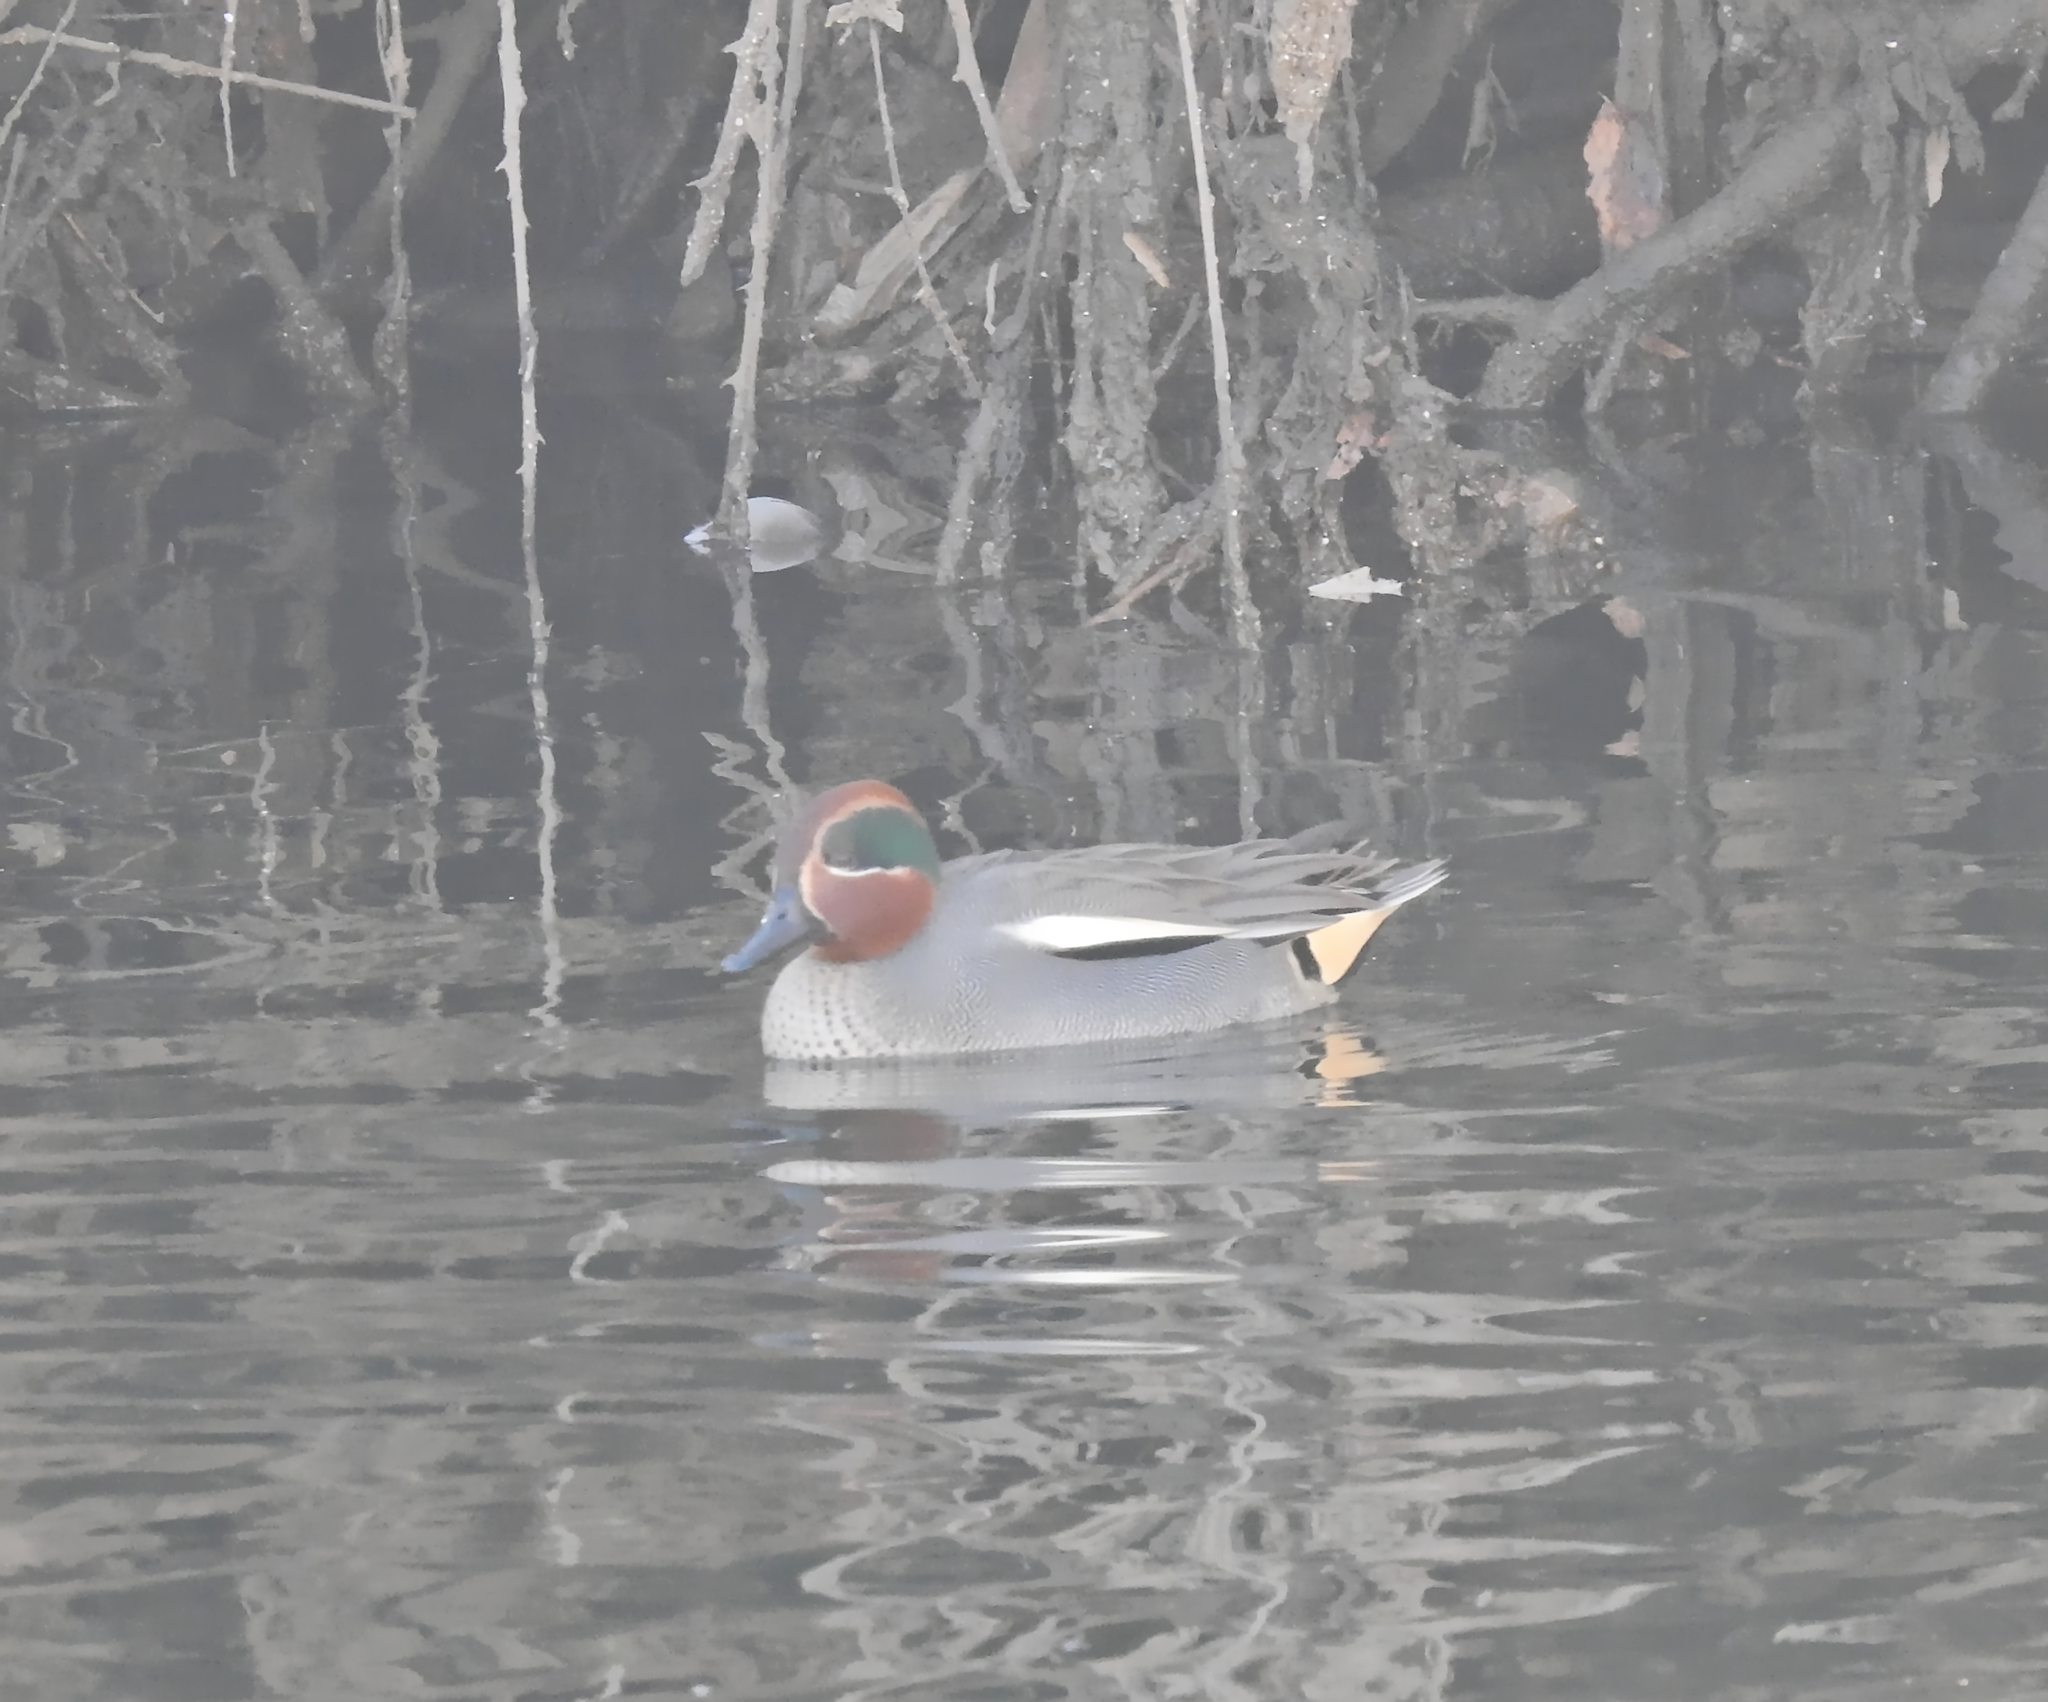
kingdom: Animalia
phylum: Chordata
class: Aves
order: Anseriformes
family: Anatidae
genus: Anas
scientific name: Anas crecca
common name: Eurasian teal
